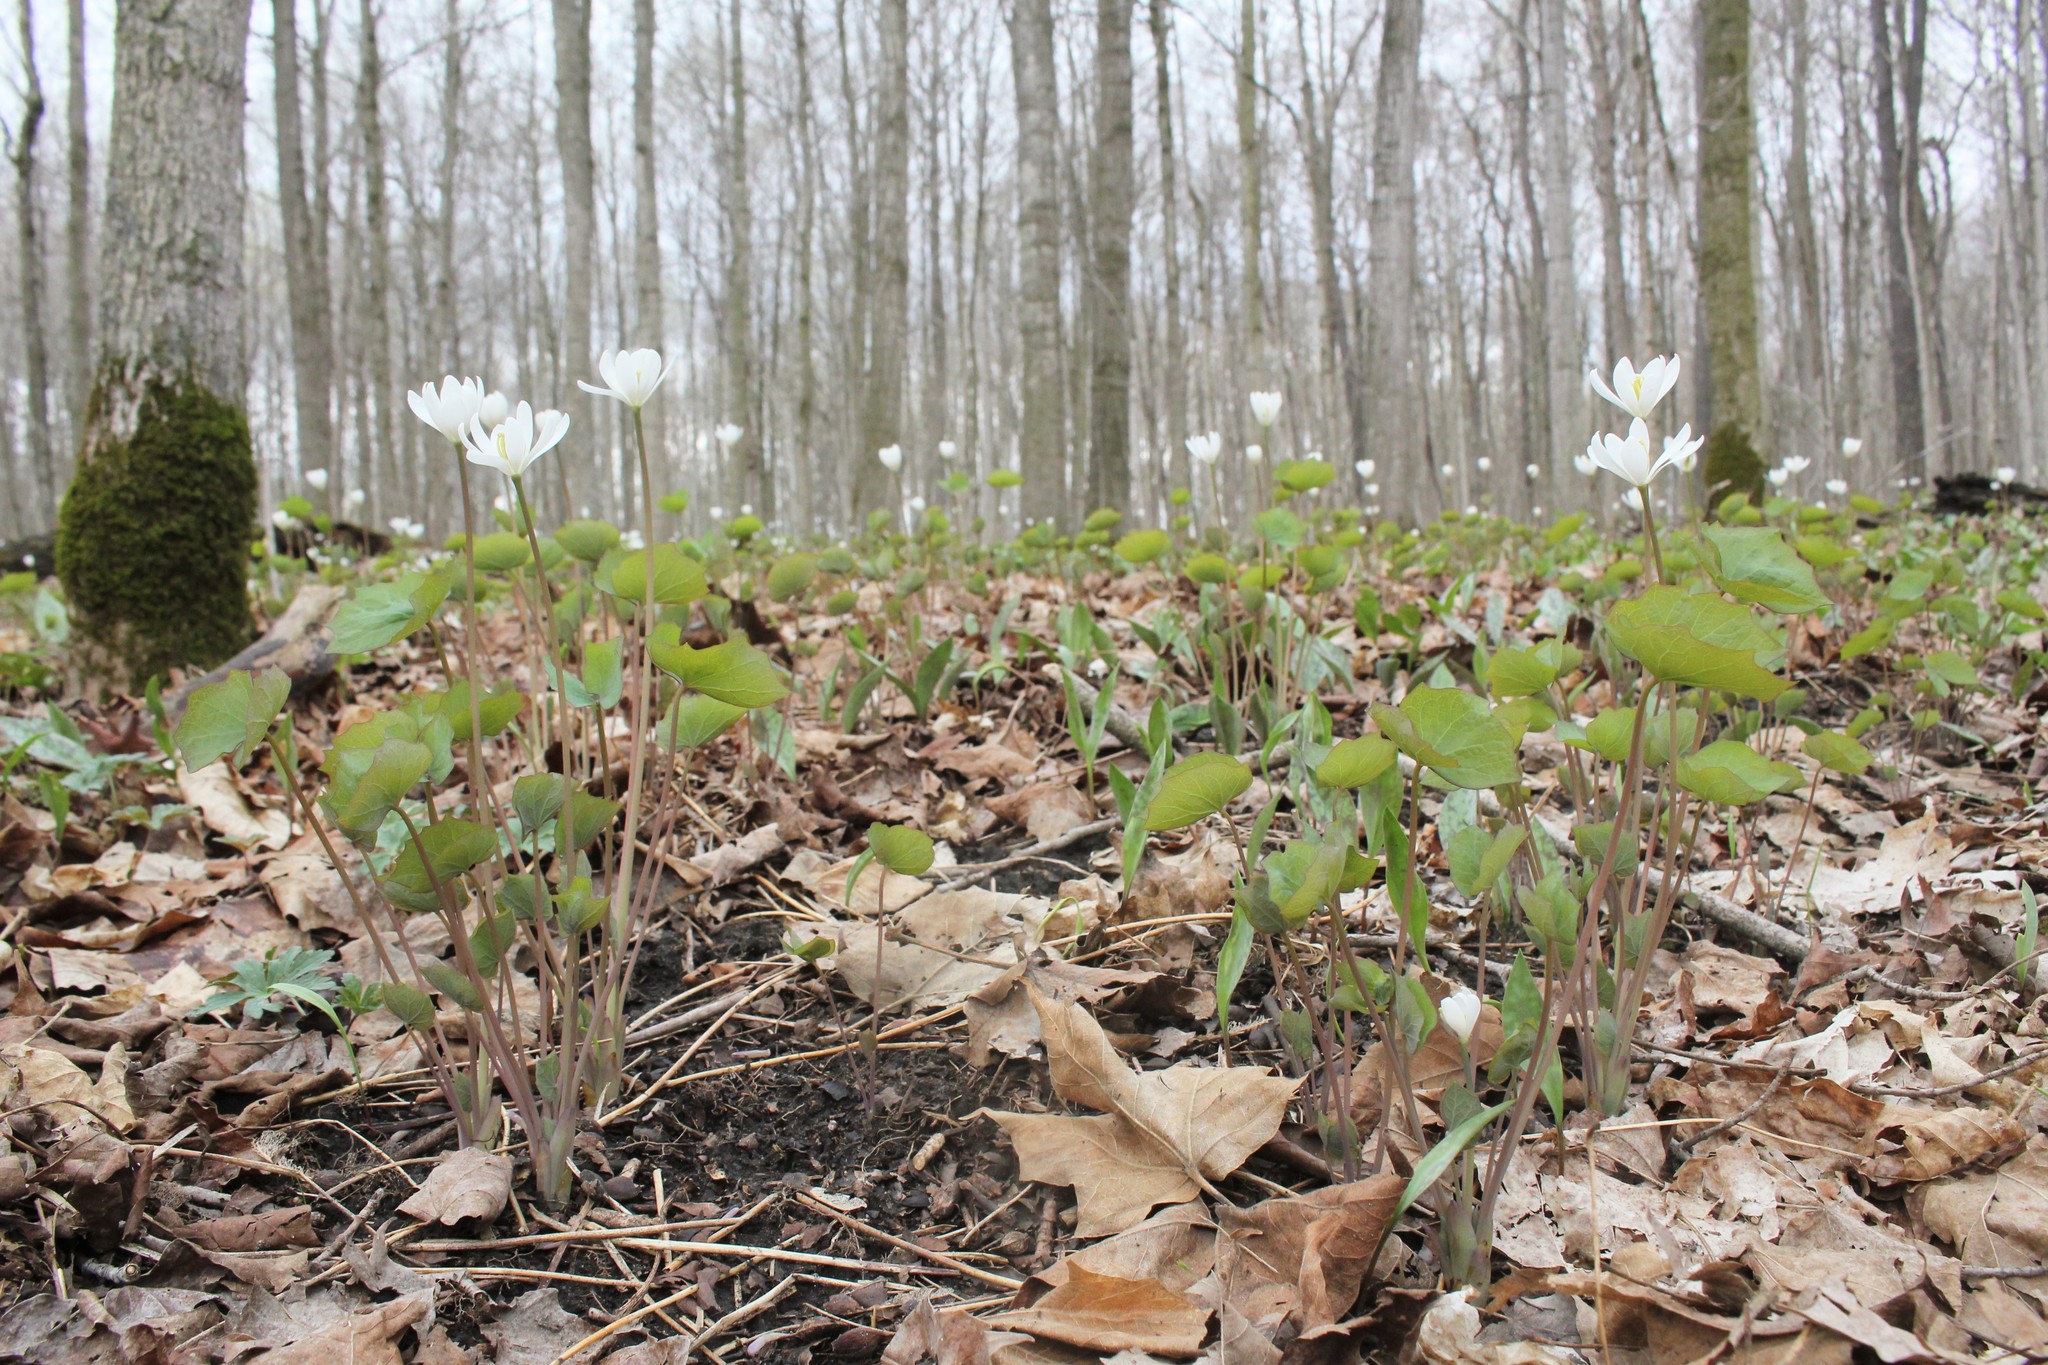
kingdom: Plantae
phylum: Tracheophyta
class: Magnoliopsida
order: Ranunculales
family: Berberidaceae
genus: Jeffersonia
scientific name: Jeffersonia diphylla
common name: Rheumatism-root
